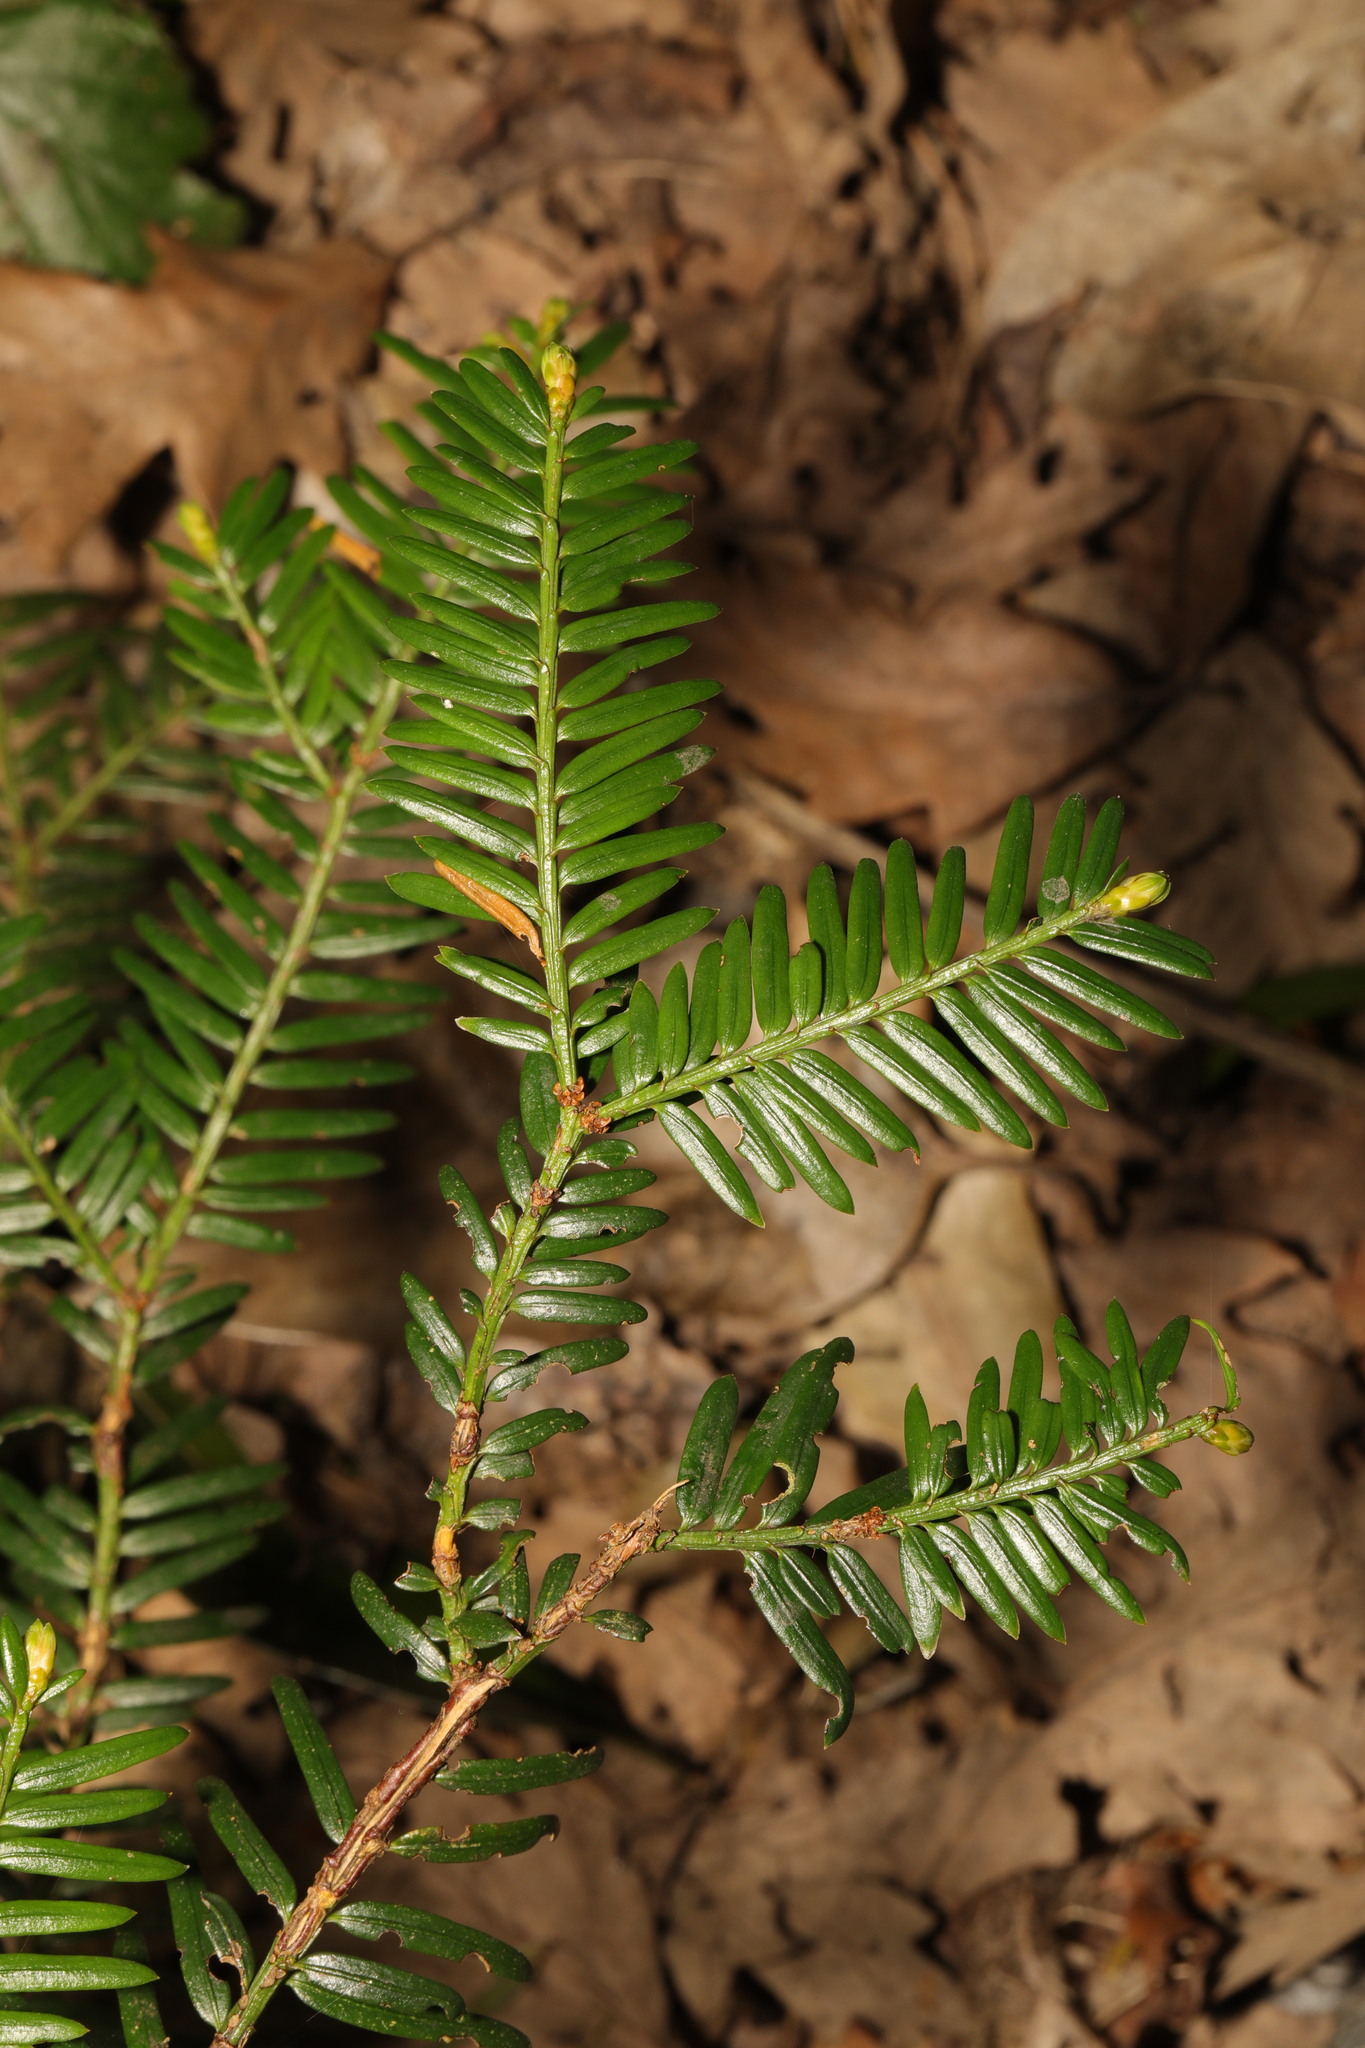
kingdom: Plantae
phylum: Tracheophyta
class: Pinopsida
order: Pinales
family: Taxaceae
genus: Taxus
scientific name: Taxus baccata
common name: Yew
